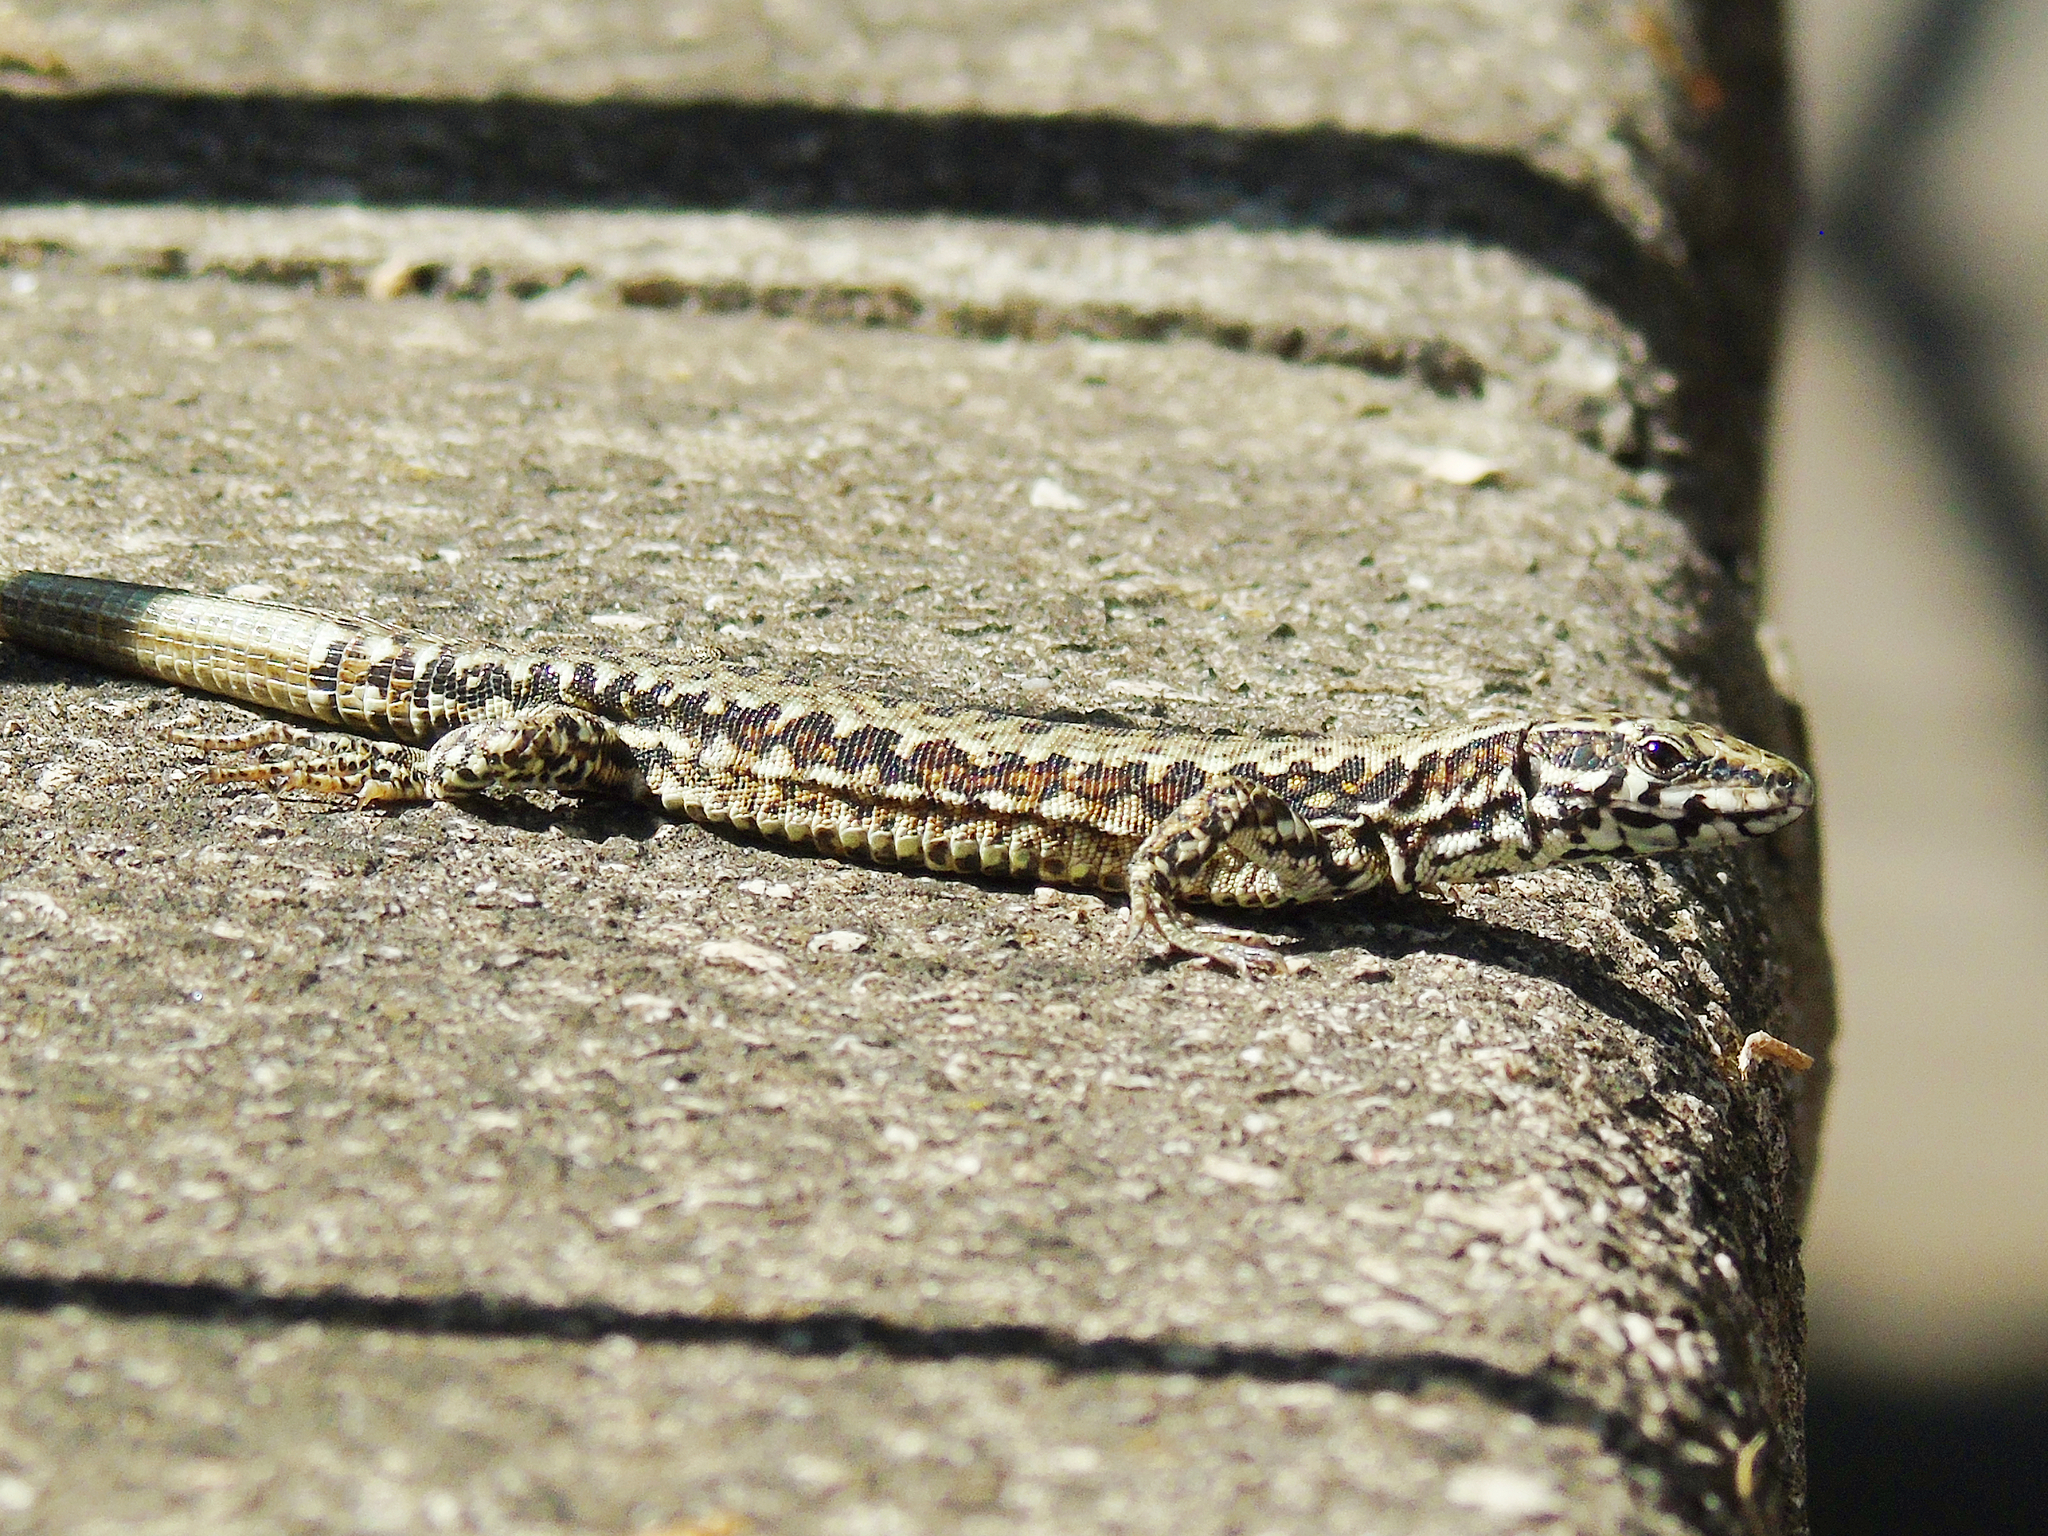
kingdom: Animalia
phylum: Chordata
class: Squamata
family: Lacertidae
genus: Podarcis
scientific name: Podarcis muralis
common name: Common wall lizard
